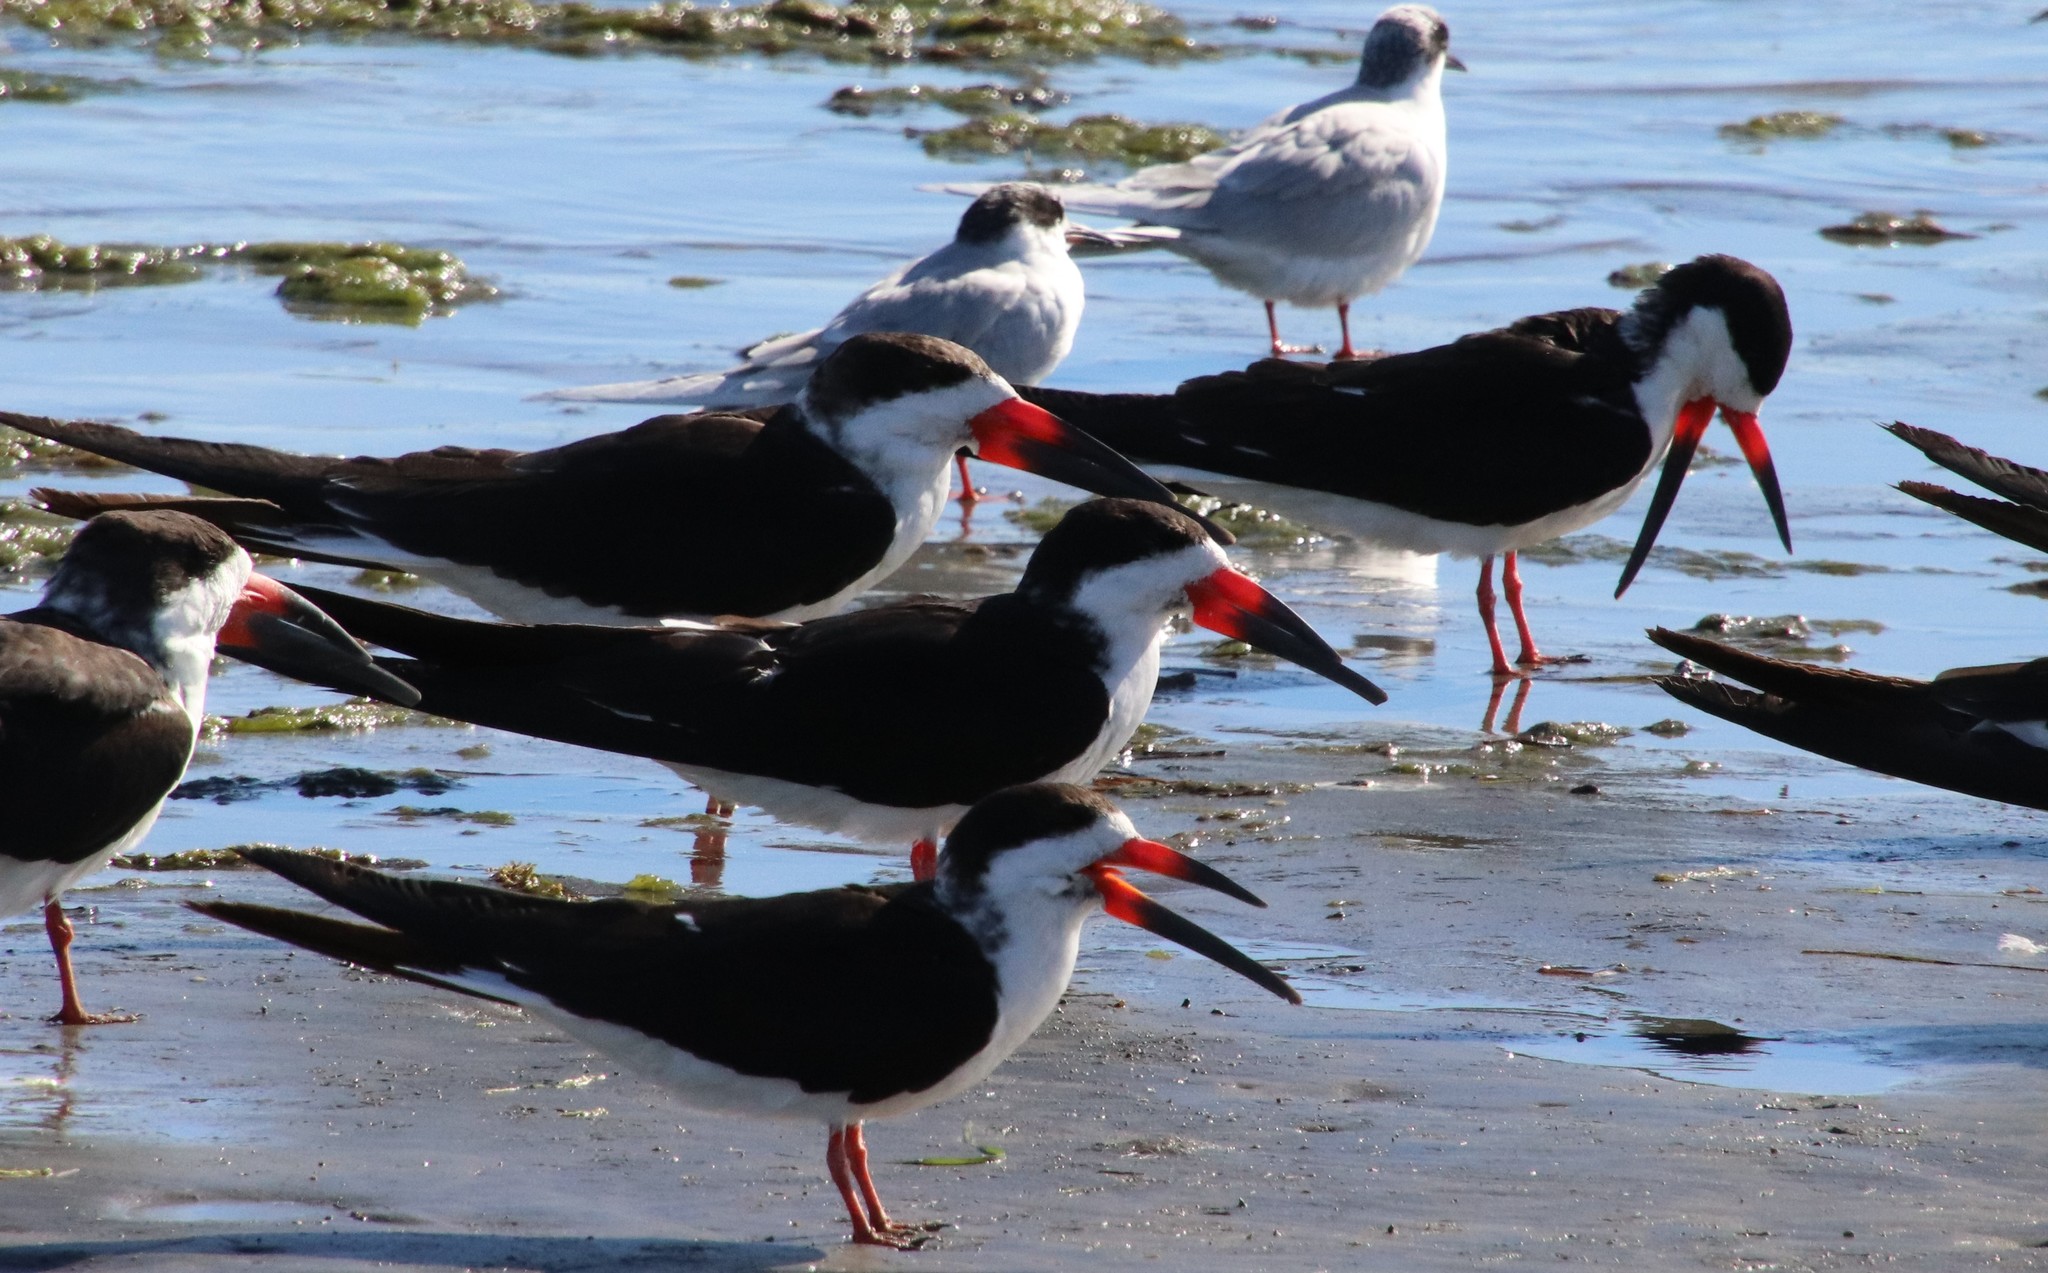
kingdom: Animalia
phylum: Chordata
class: Aves
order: Charadriiformes
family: Laridae
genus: Rynchops
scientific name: Rynchops niger
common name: Black skimmer
